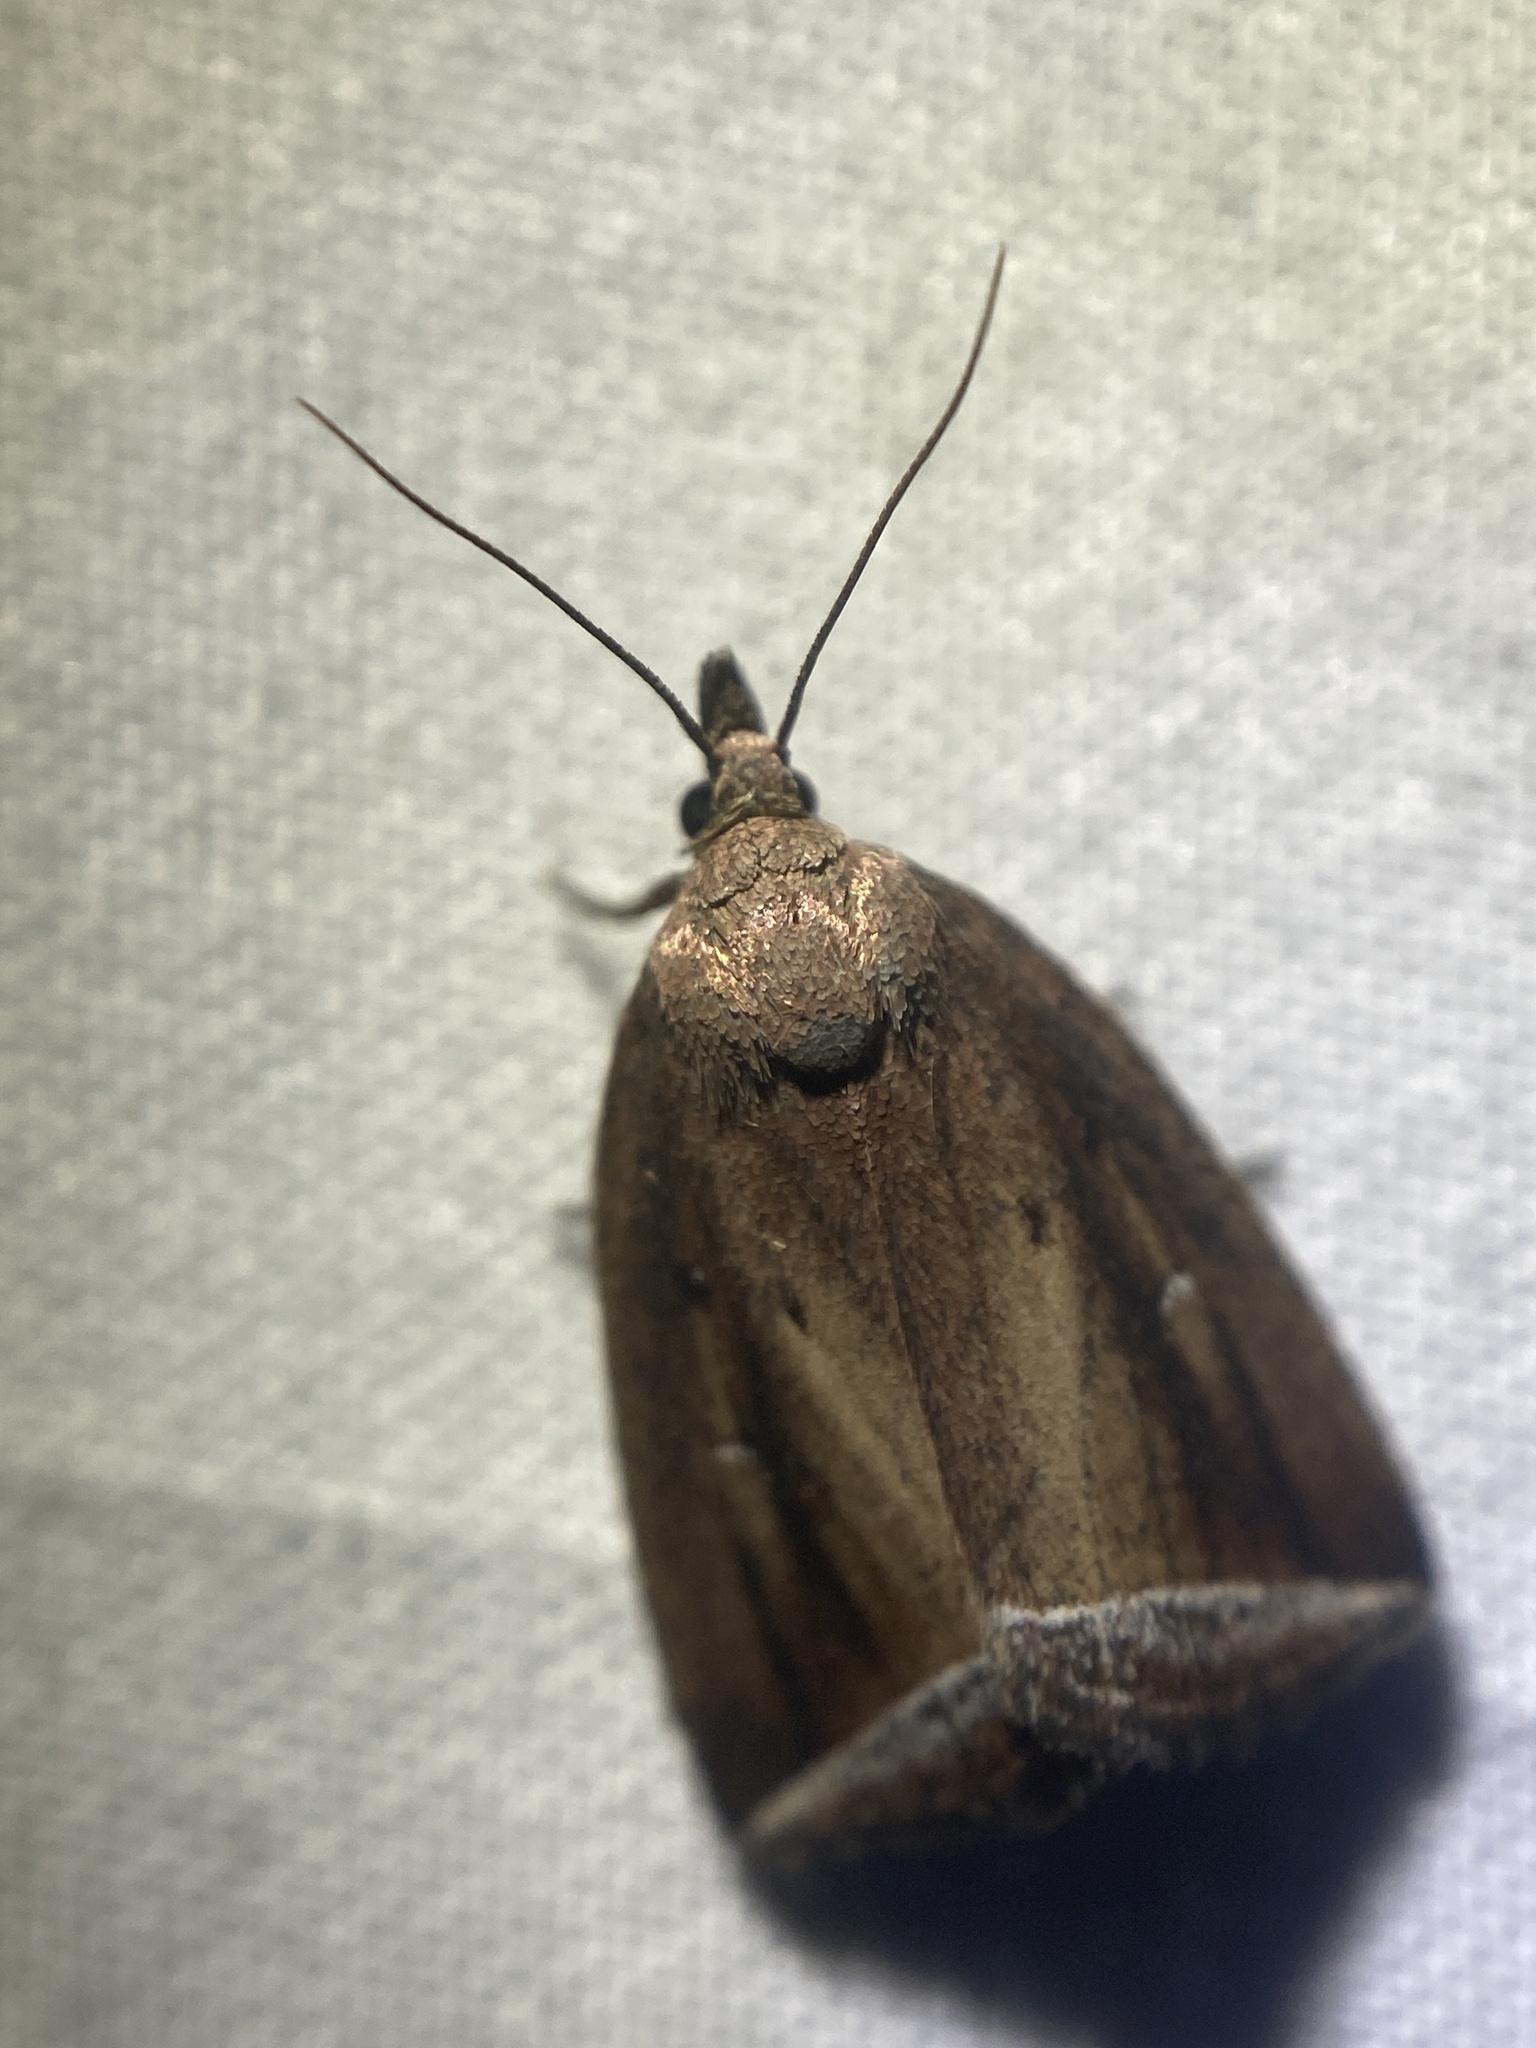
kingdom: Animalia
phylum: Arthropoda
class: Insecta
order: Lepidoptera
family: Erebidae
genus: Capis
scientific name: Capis curvata
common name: Curved halter moth
